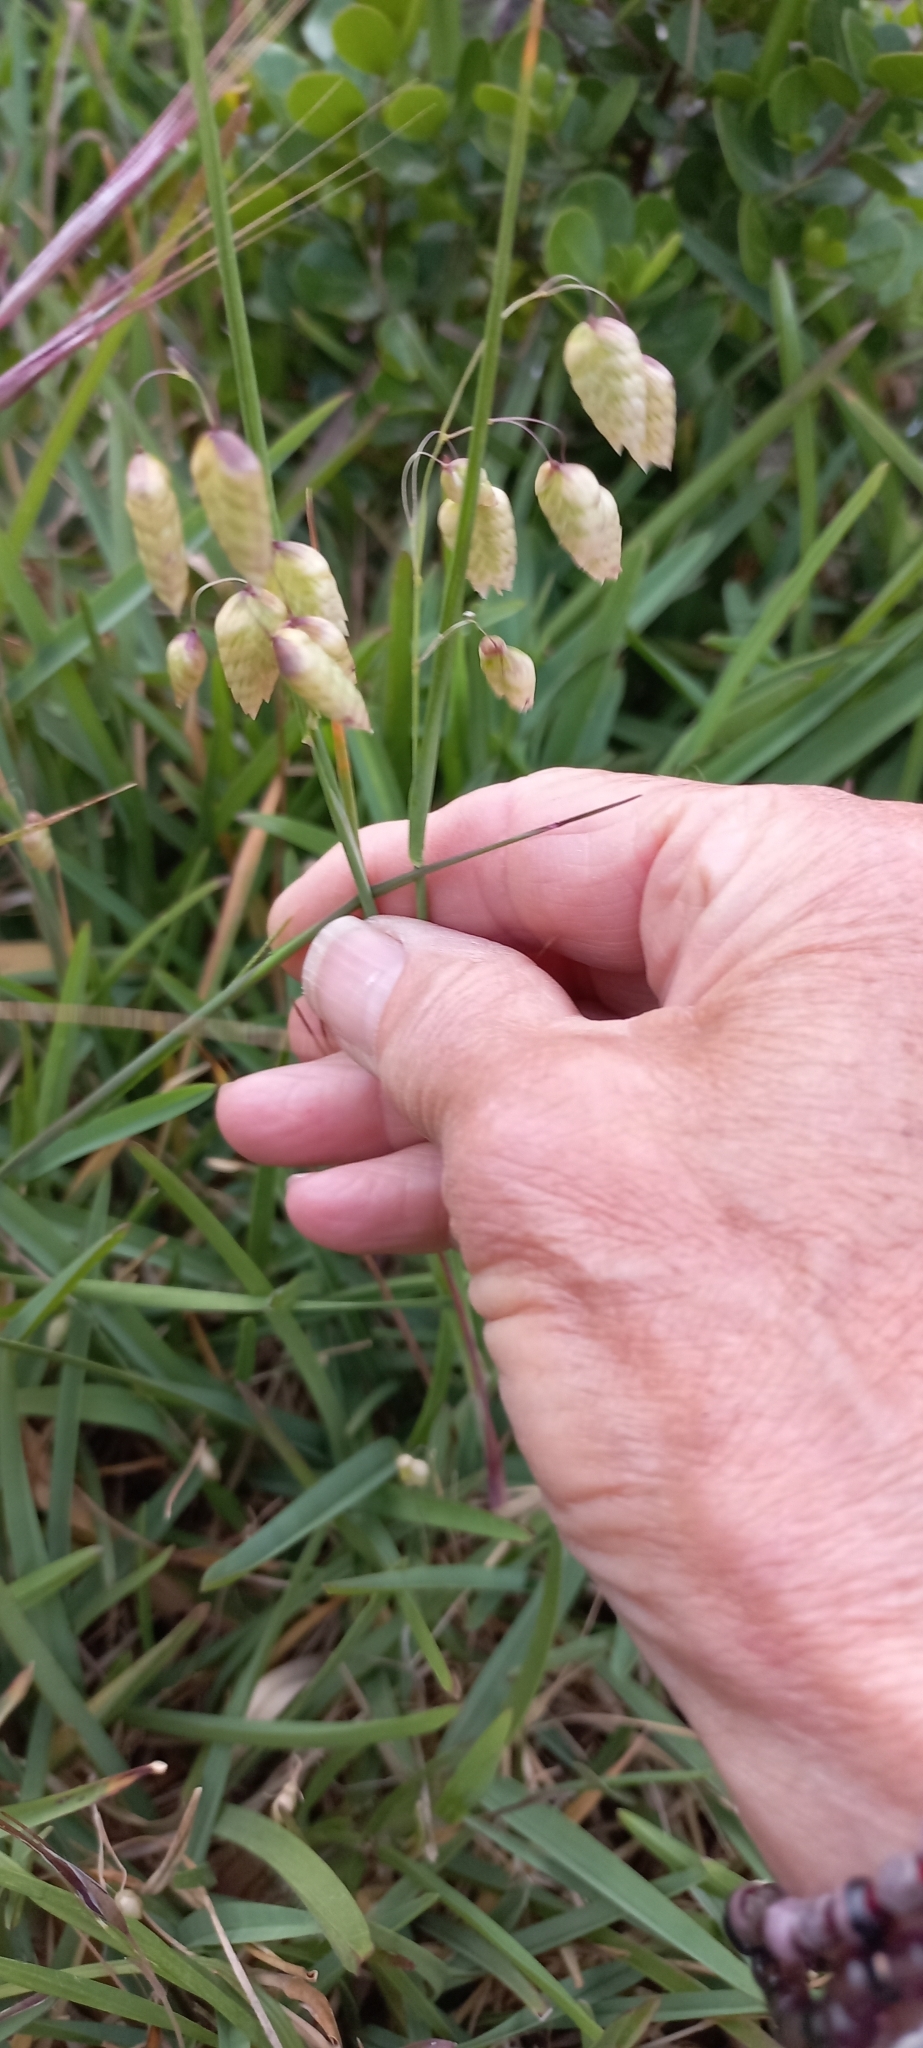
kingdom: Plantae
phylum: Tracheophyta
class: Liliopsida
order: Poales
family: Poaceae
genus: Briza
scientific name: Briza maxima
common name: Big quakinggrass
